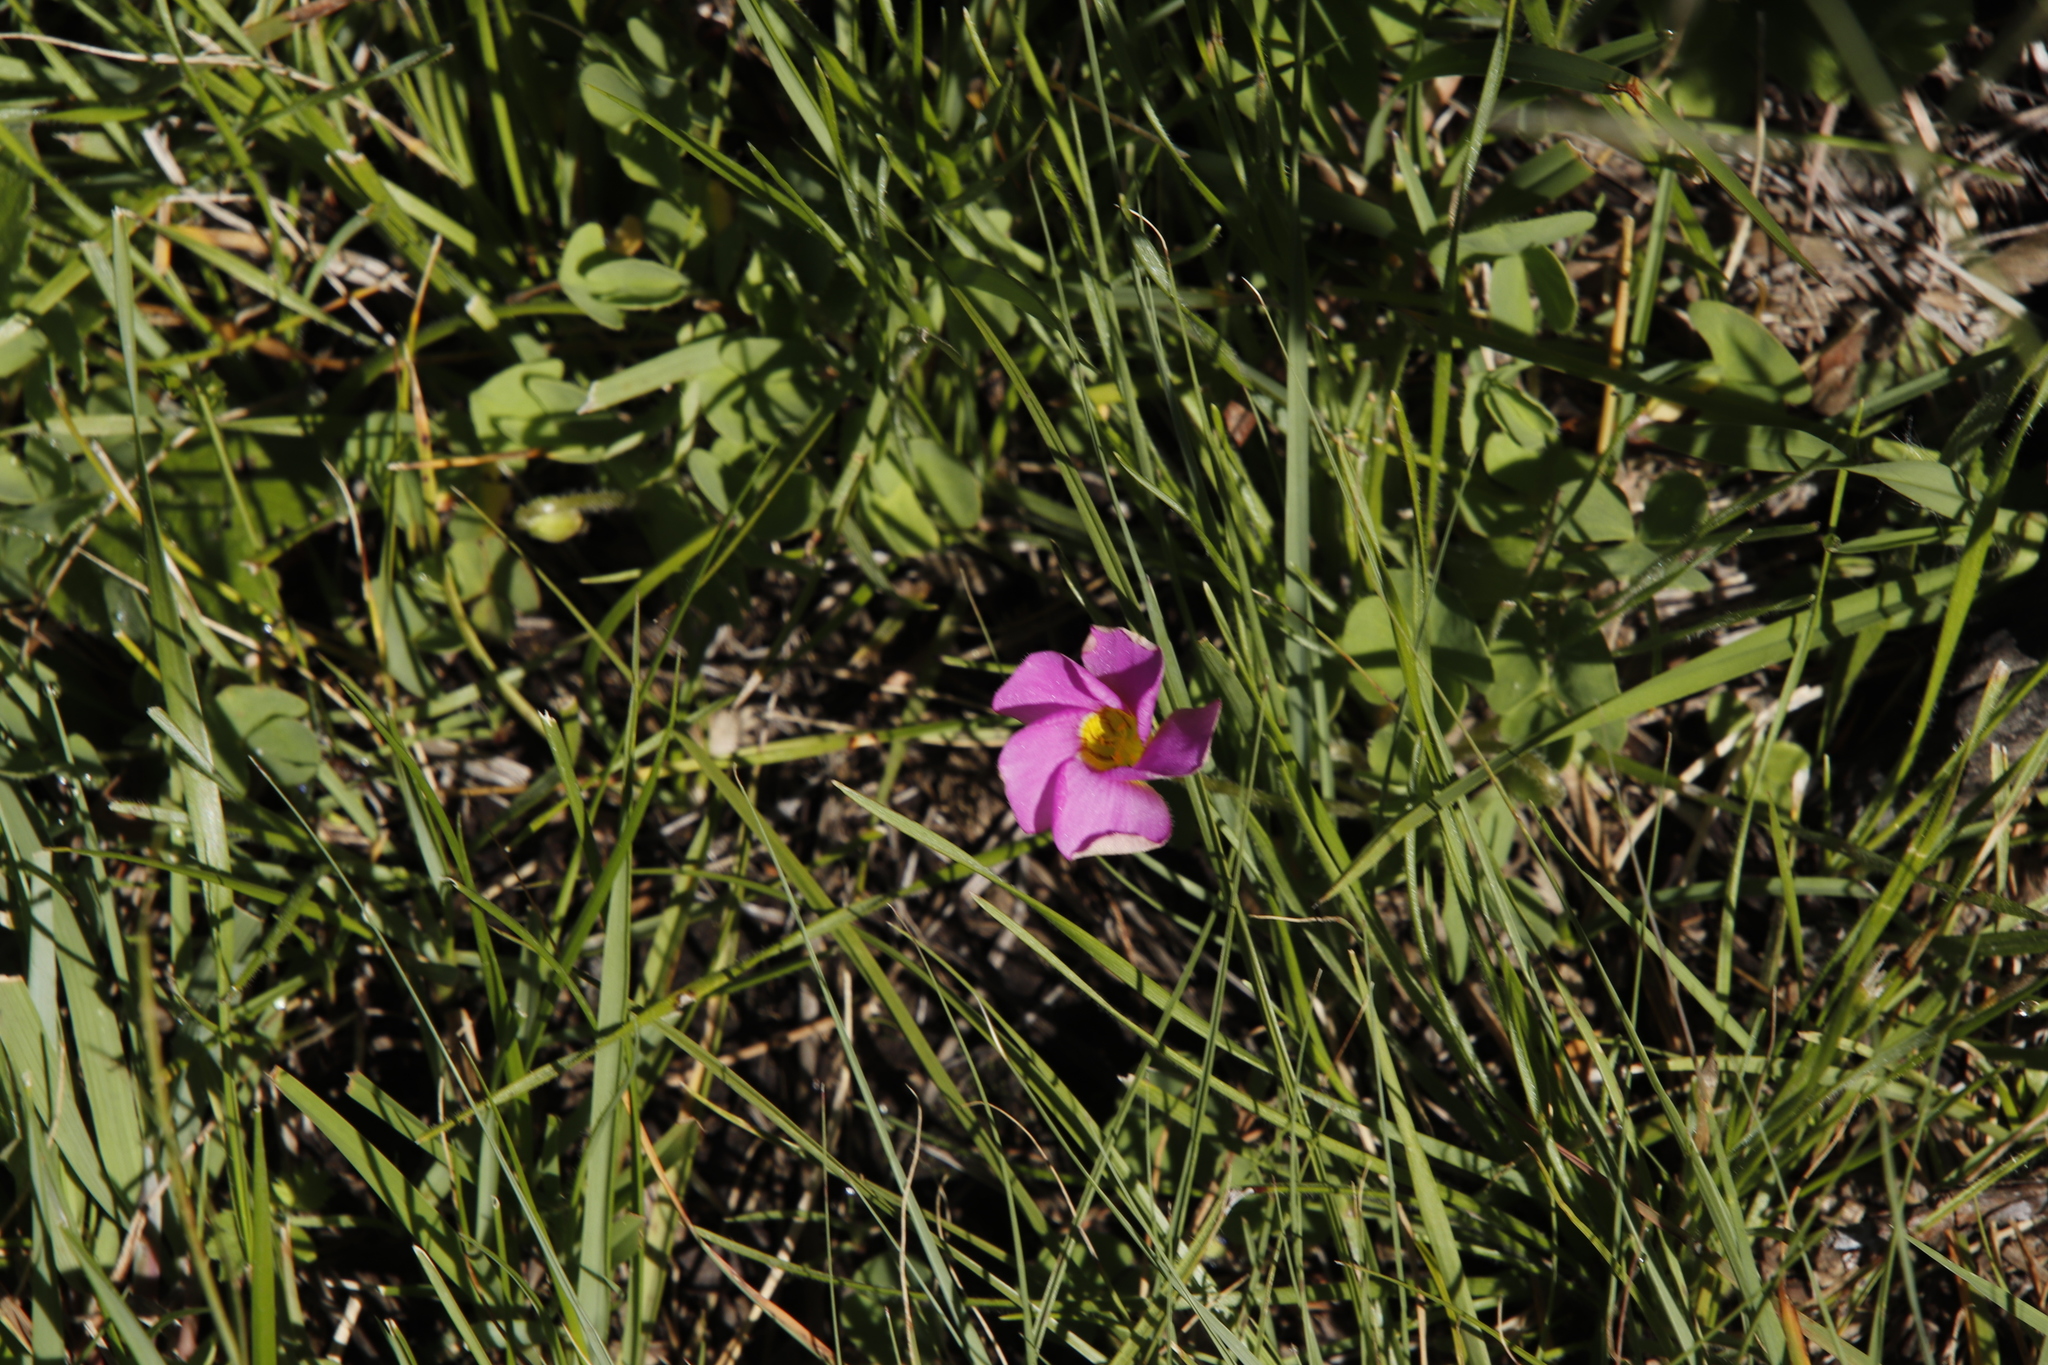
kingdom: Plantae
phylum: Tracheophyta
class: Magnoliopsida
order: Oxalidales
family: Oxalidaceae
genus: Oxalis
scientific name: Oxalis obliquifolia
